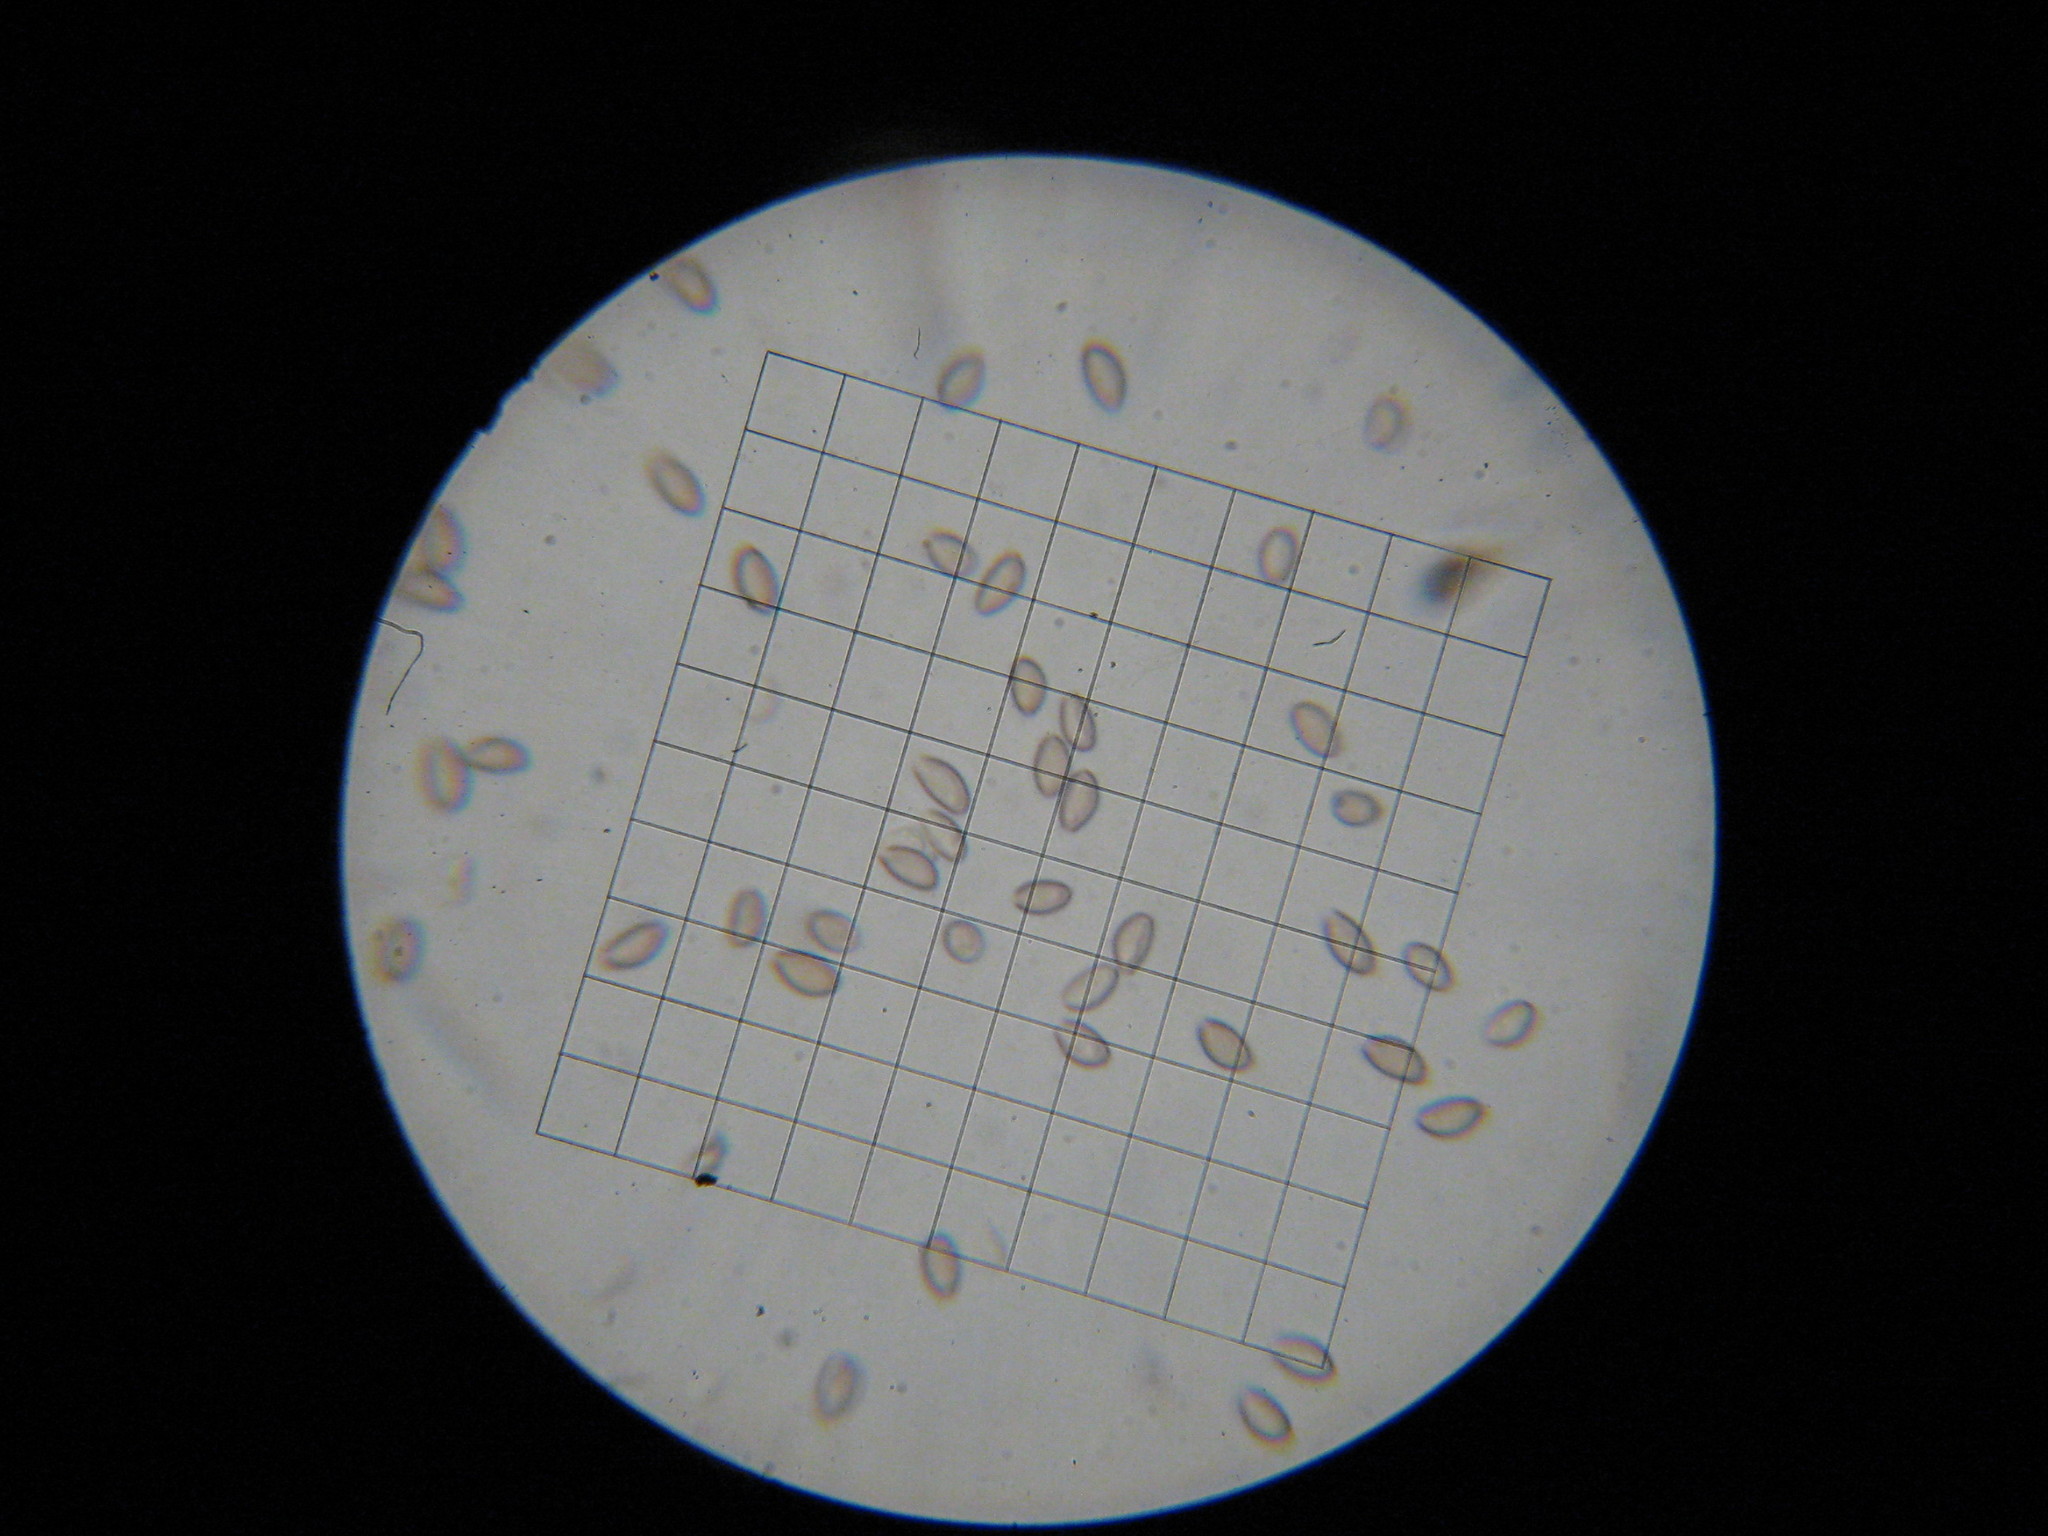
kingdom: Fungi
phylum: Basidiomycota
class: Agaricomycetes
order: Agaricales
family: Hymenogastraceae
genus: Psilocybe
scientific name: Psilocybe caerulipes
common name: Blue-foot
